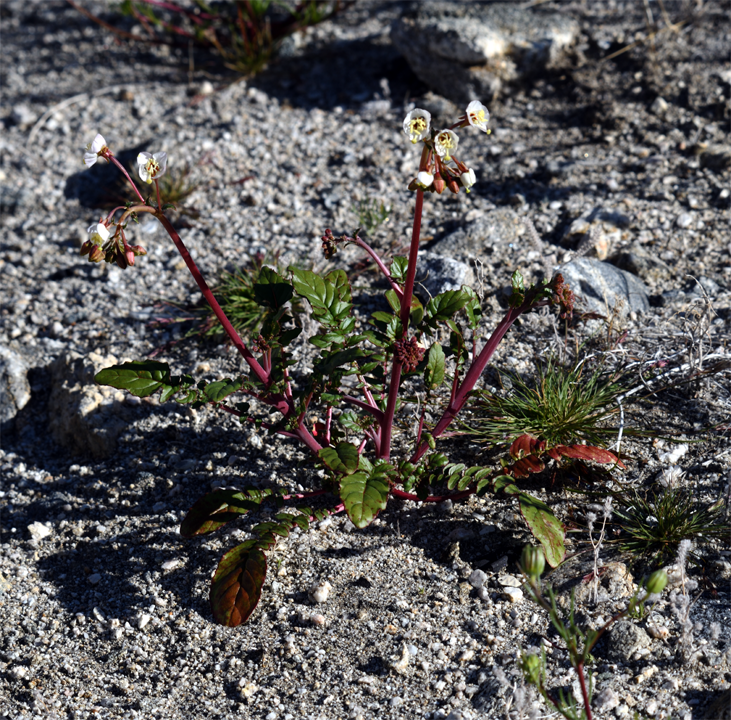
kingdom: Plantae
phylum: Tracheophyta
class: Magnoliopsida
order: Myrtales
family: Onagraceae
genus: Chylismia
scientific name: Chylismia claviformis
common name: Browneyes
